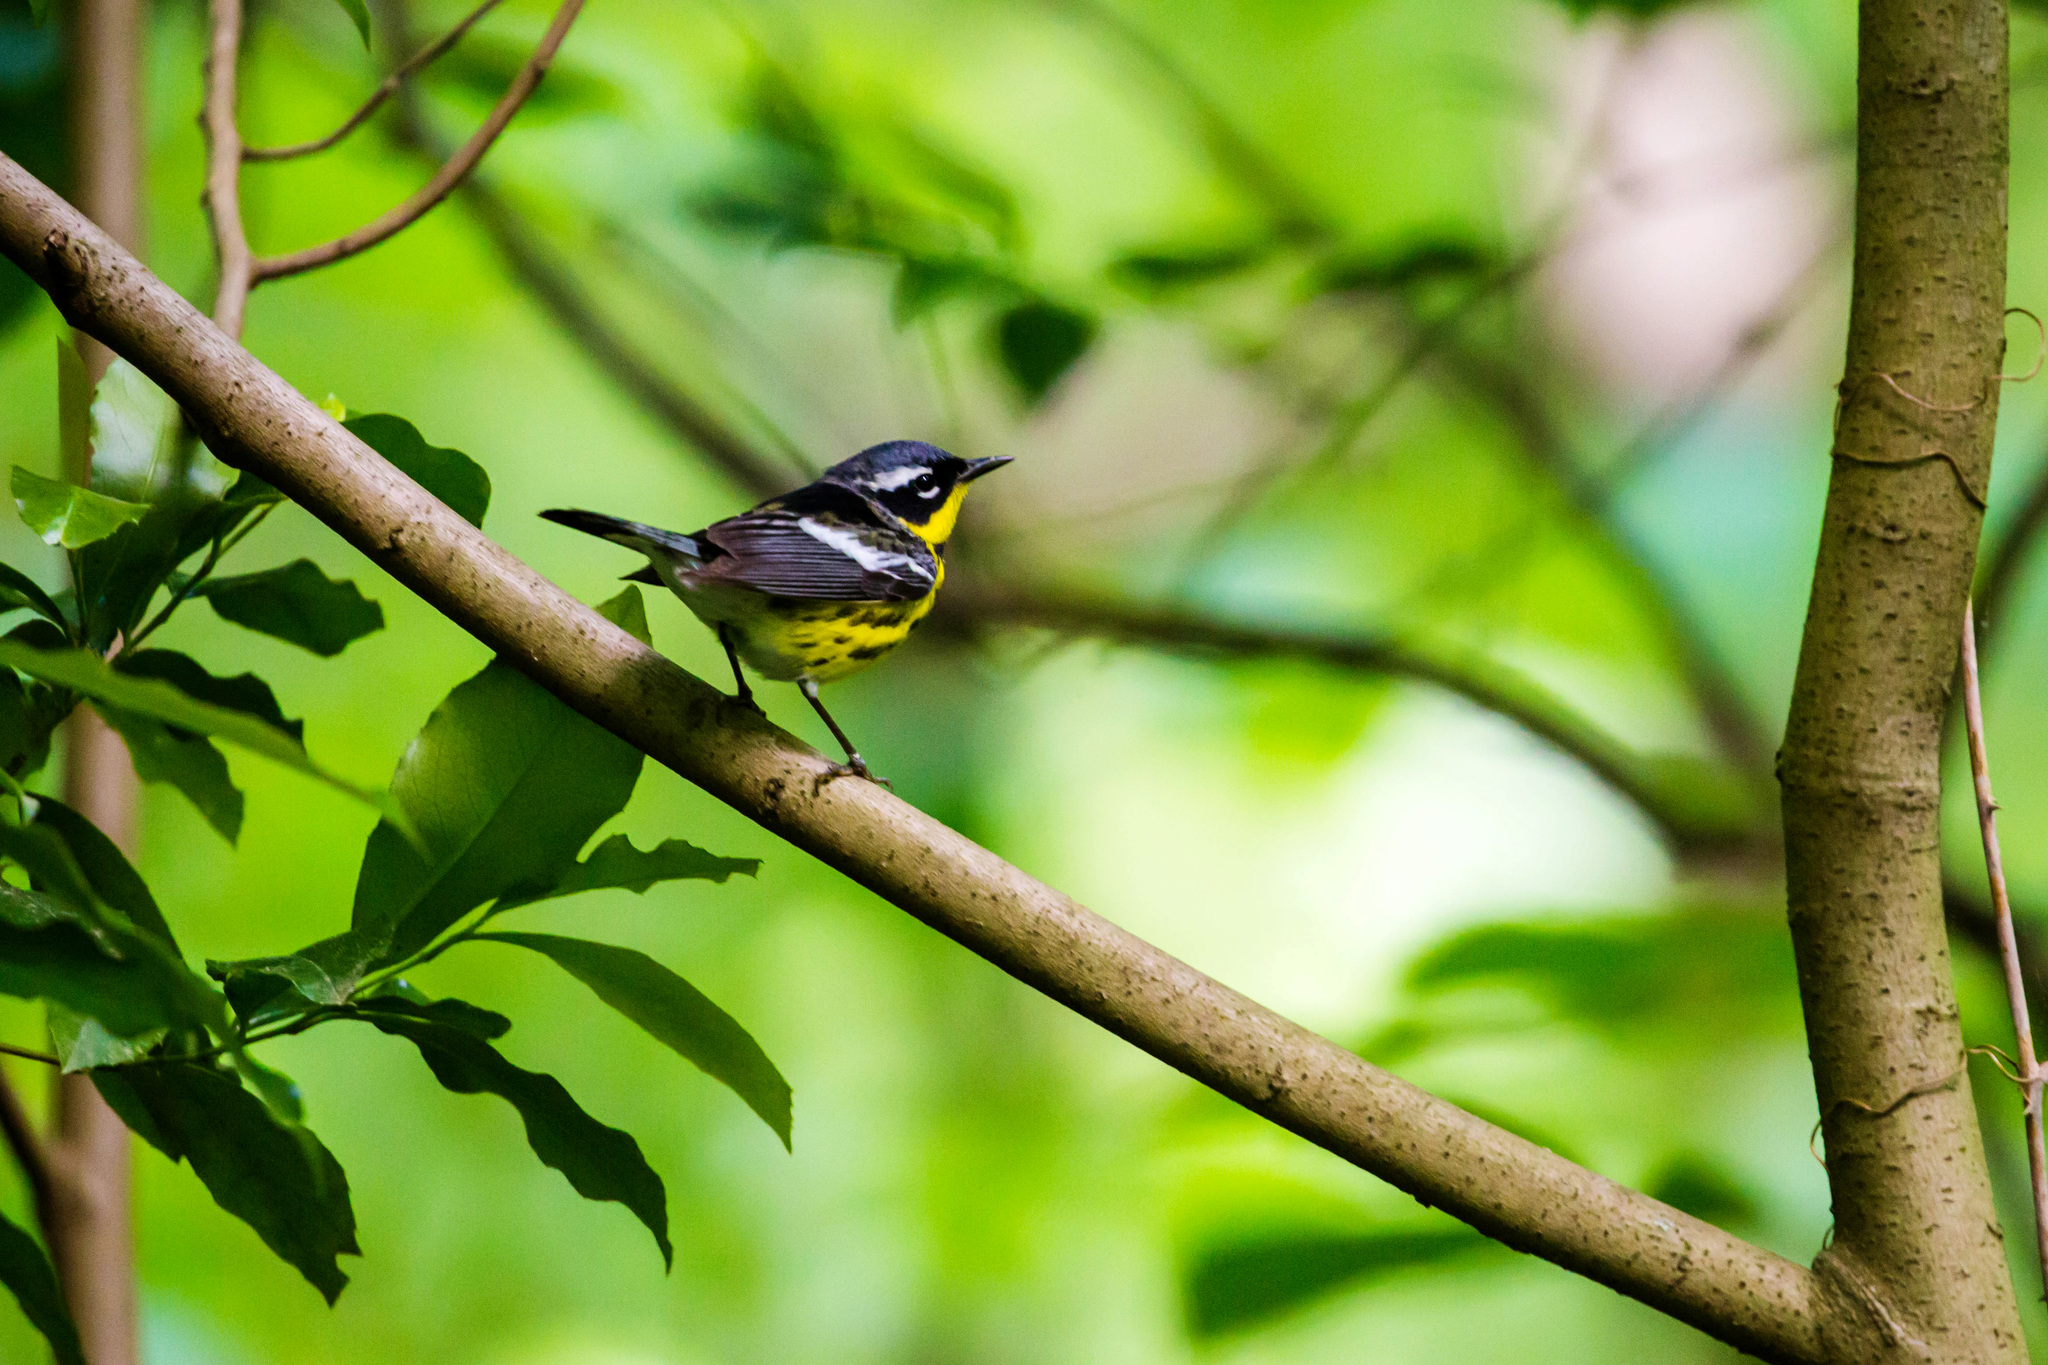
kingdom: Animalia
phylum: Chordata
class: Aves
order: Passeriformes
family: Parulidae
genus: Setophaga
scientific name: Setophaga magnolia
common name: Magnolia warbler
